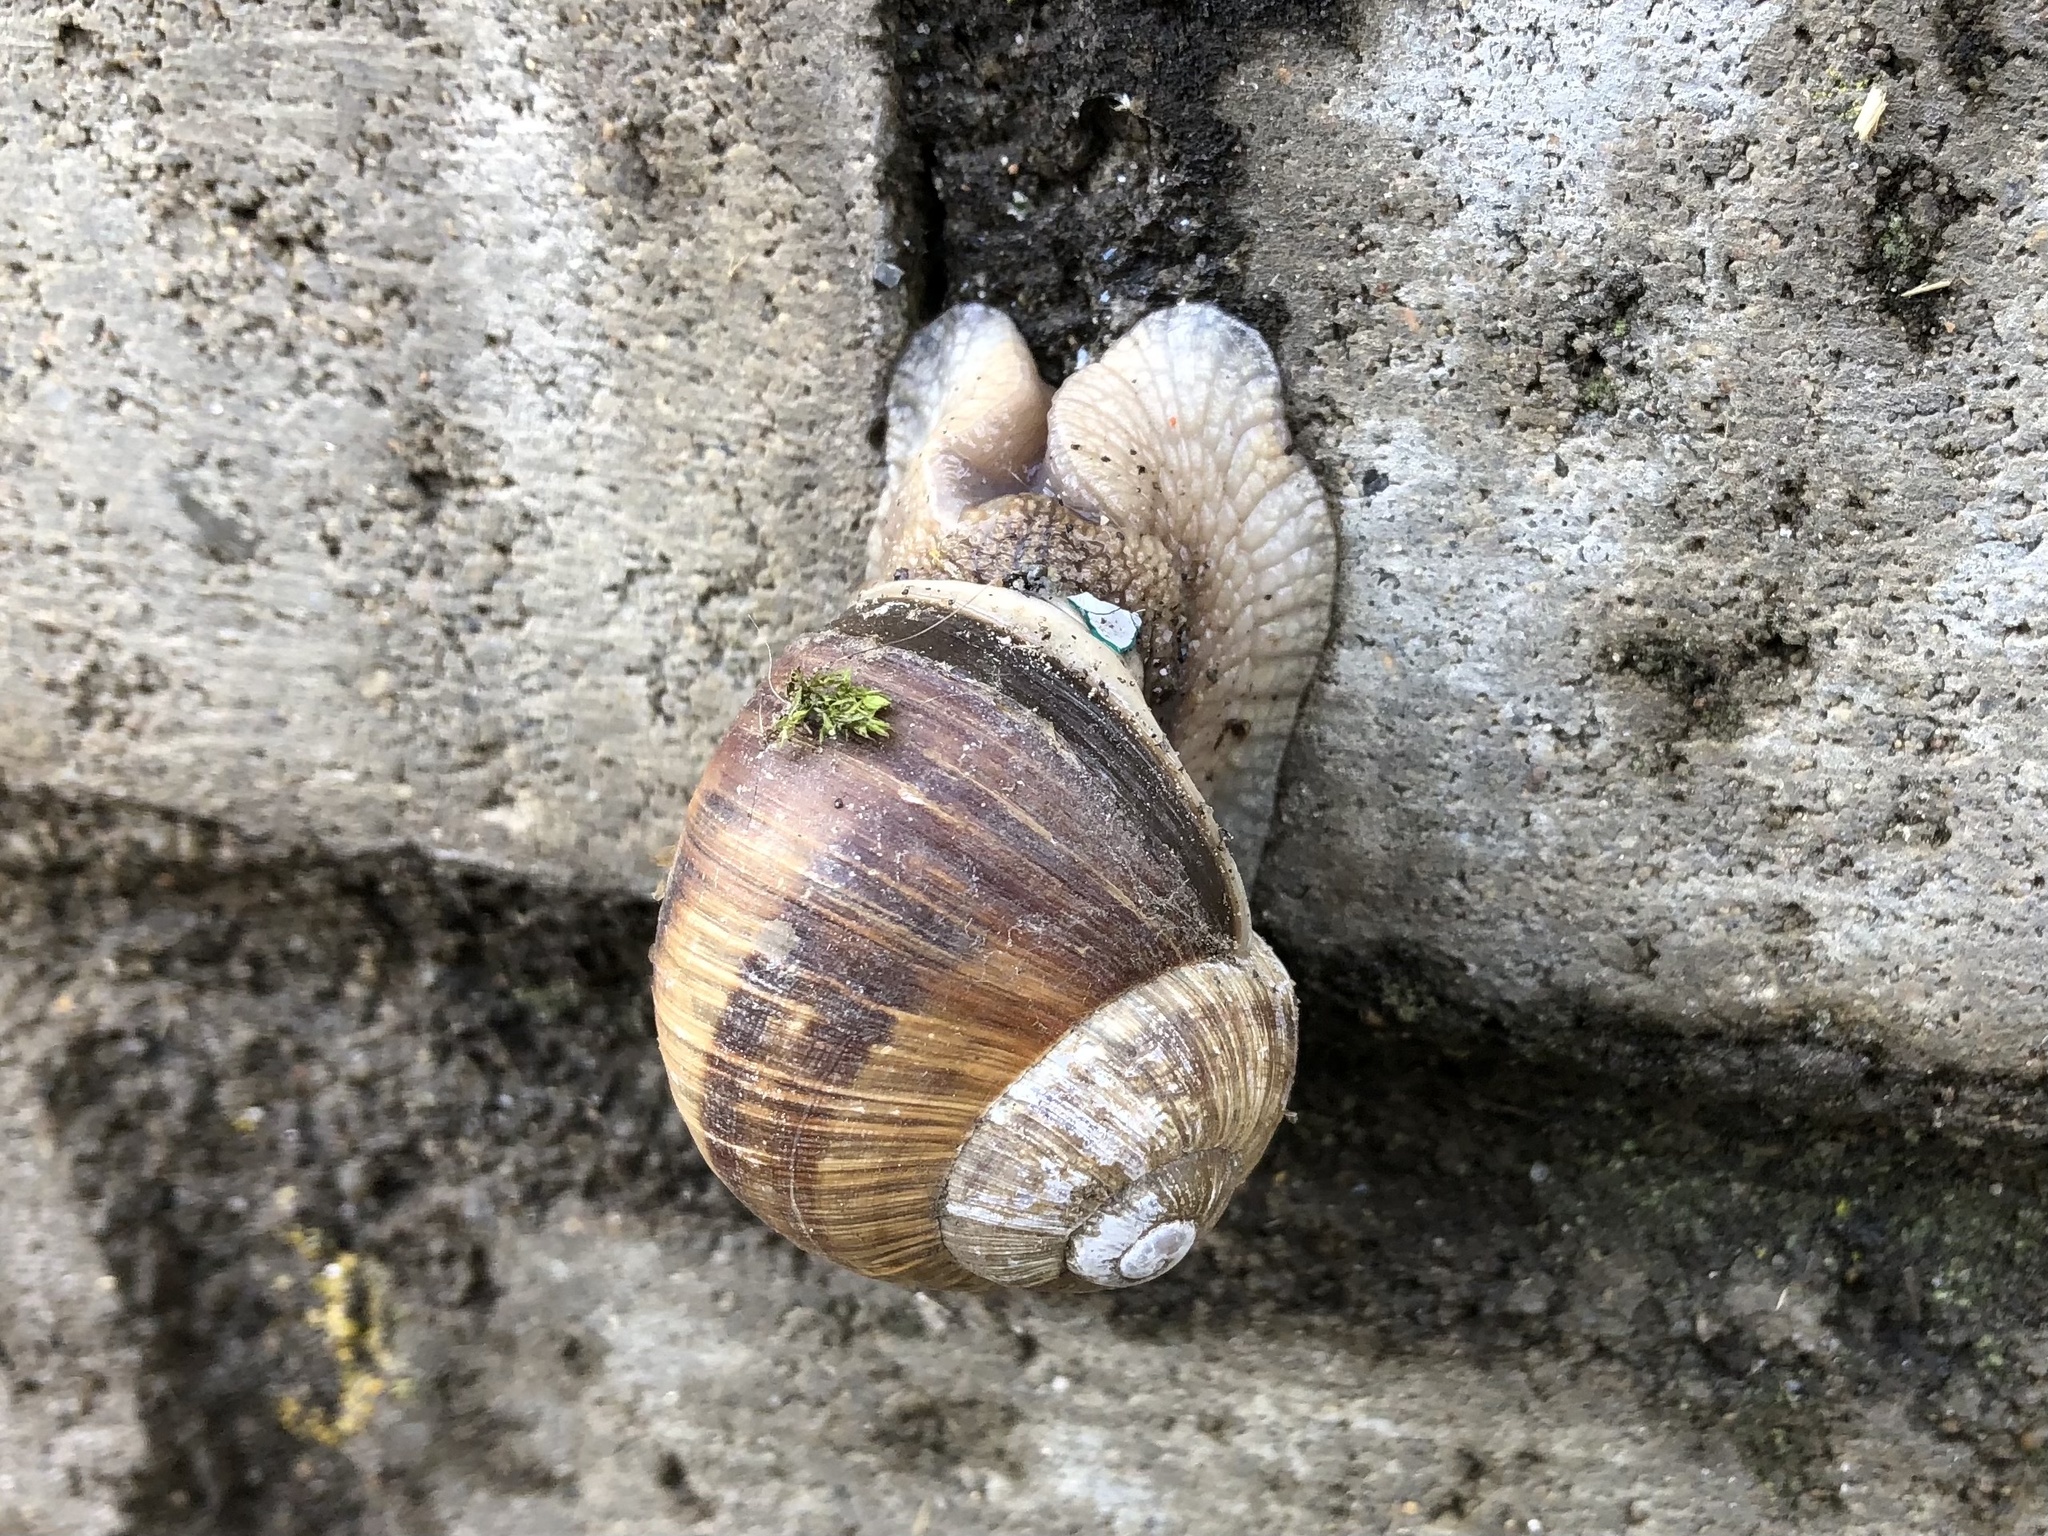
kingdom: Animalia
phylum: Mollusca
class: Gastropoda
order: Stylommatophora
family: Helicidae
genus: Helix
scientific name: Helix pomatia
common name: Roman snail
